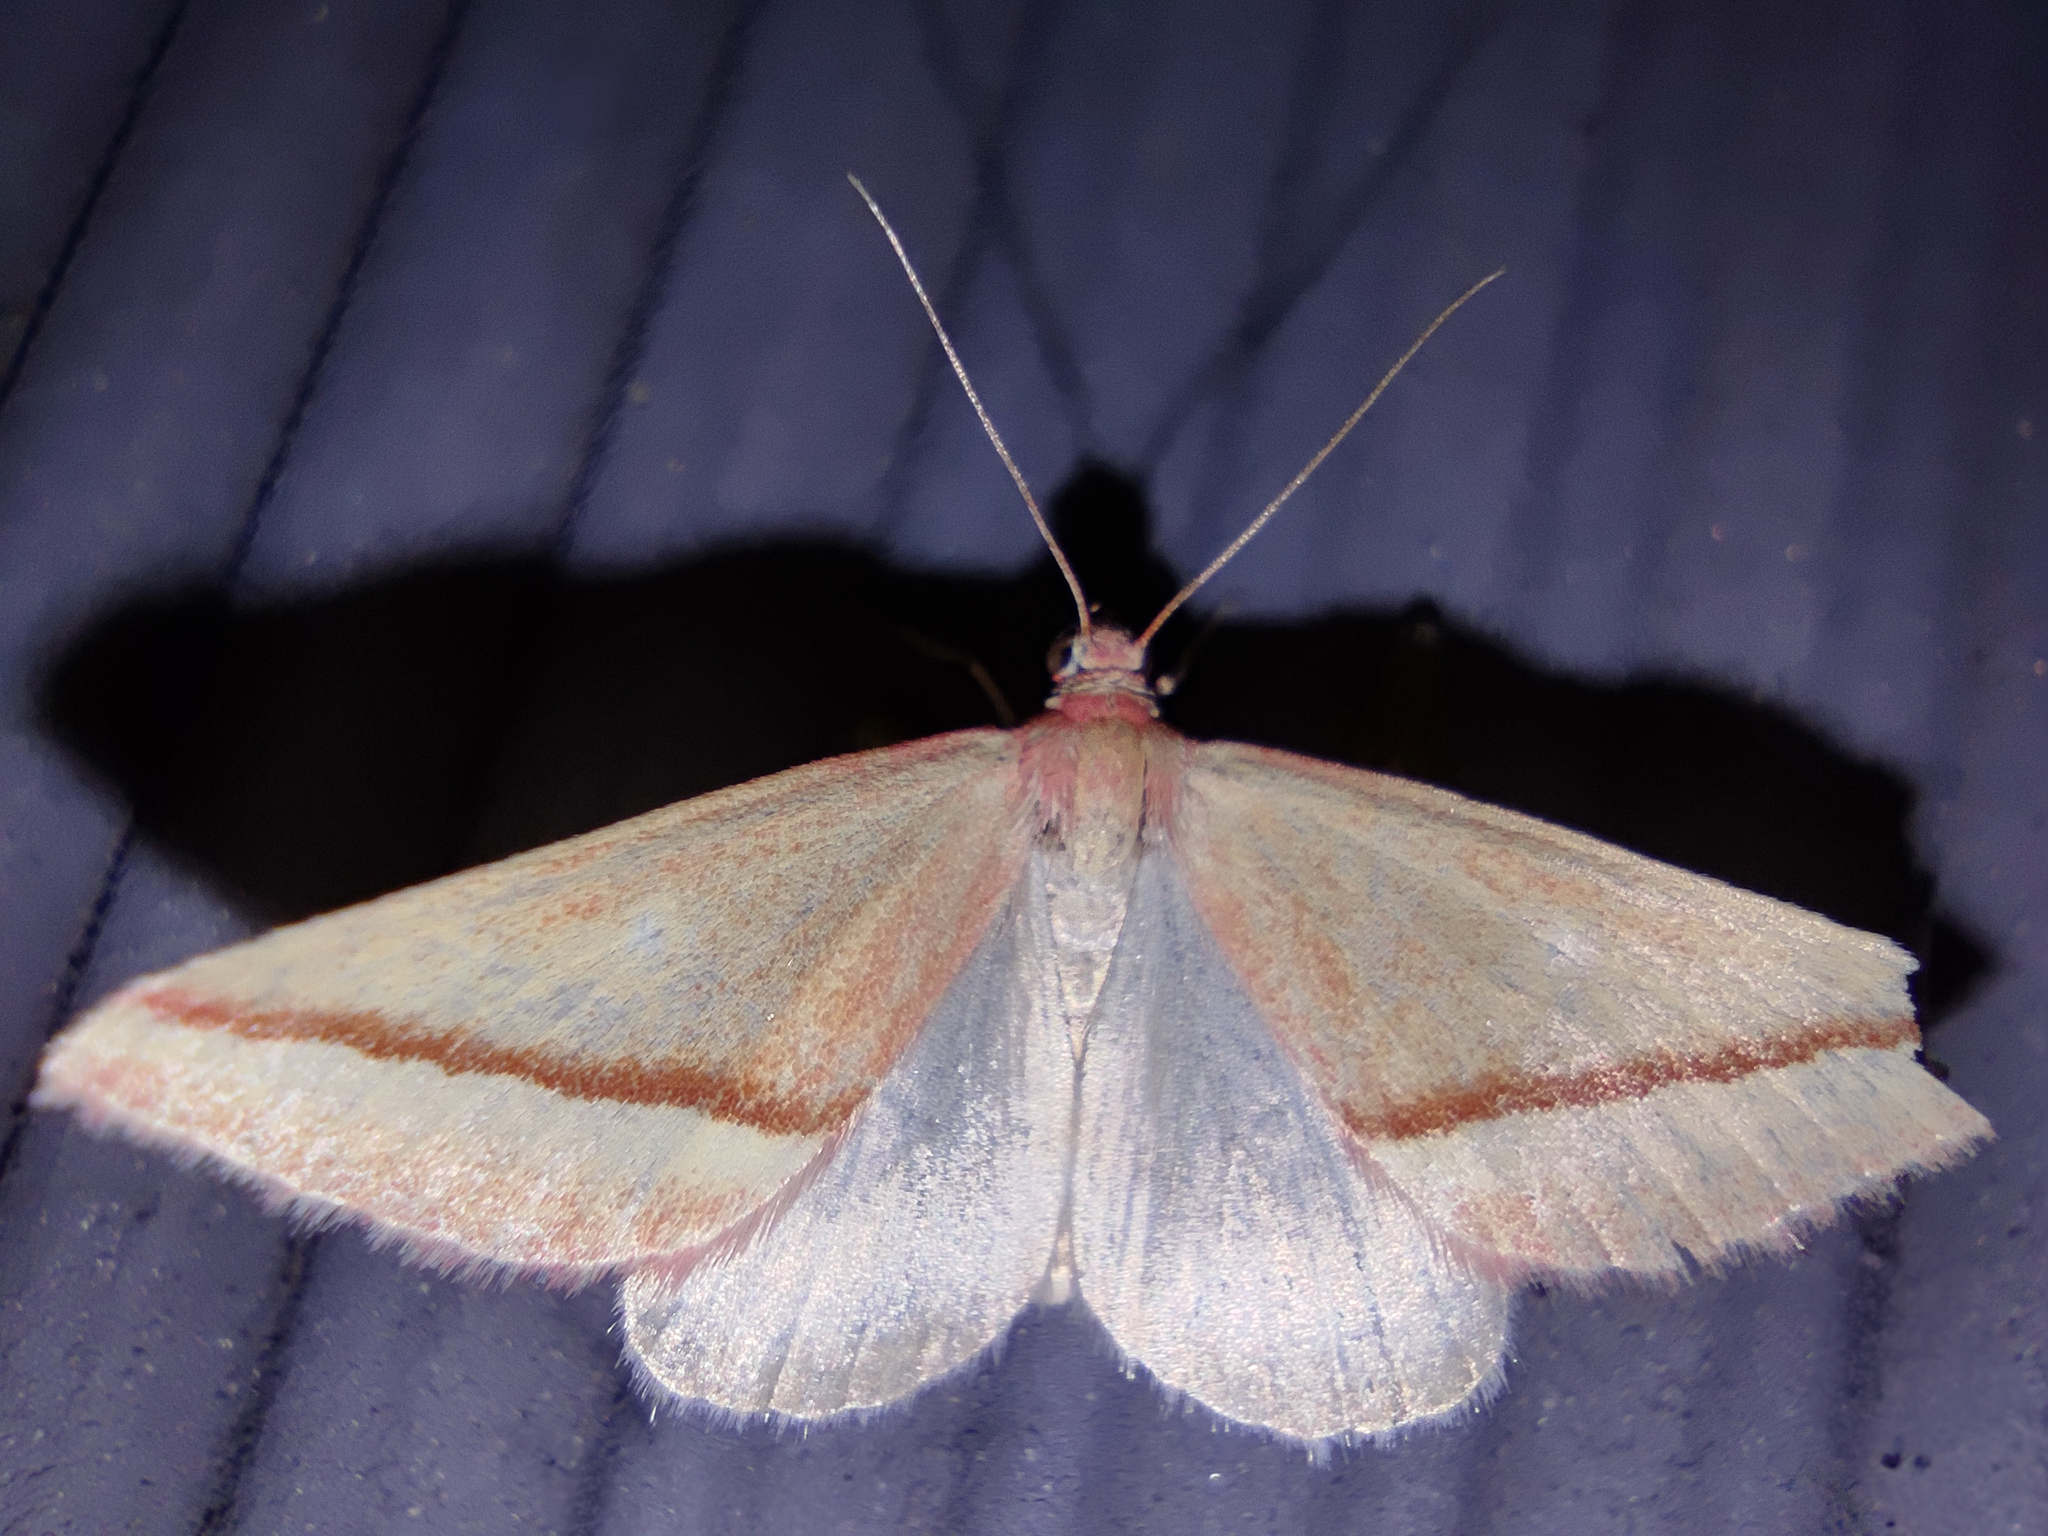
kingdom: Animalia
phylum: Arthropoda
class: Insecta
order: Lepidoptera
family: Geometridae
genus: Casilda
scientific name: Casilda antophilaria
